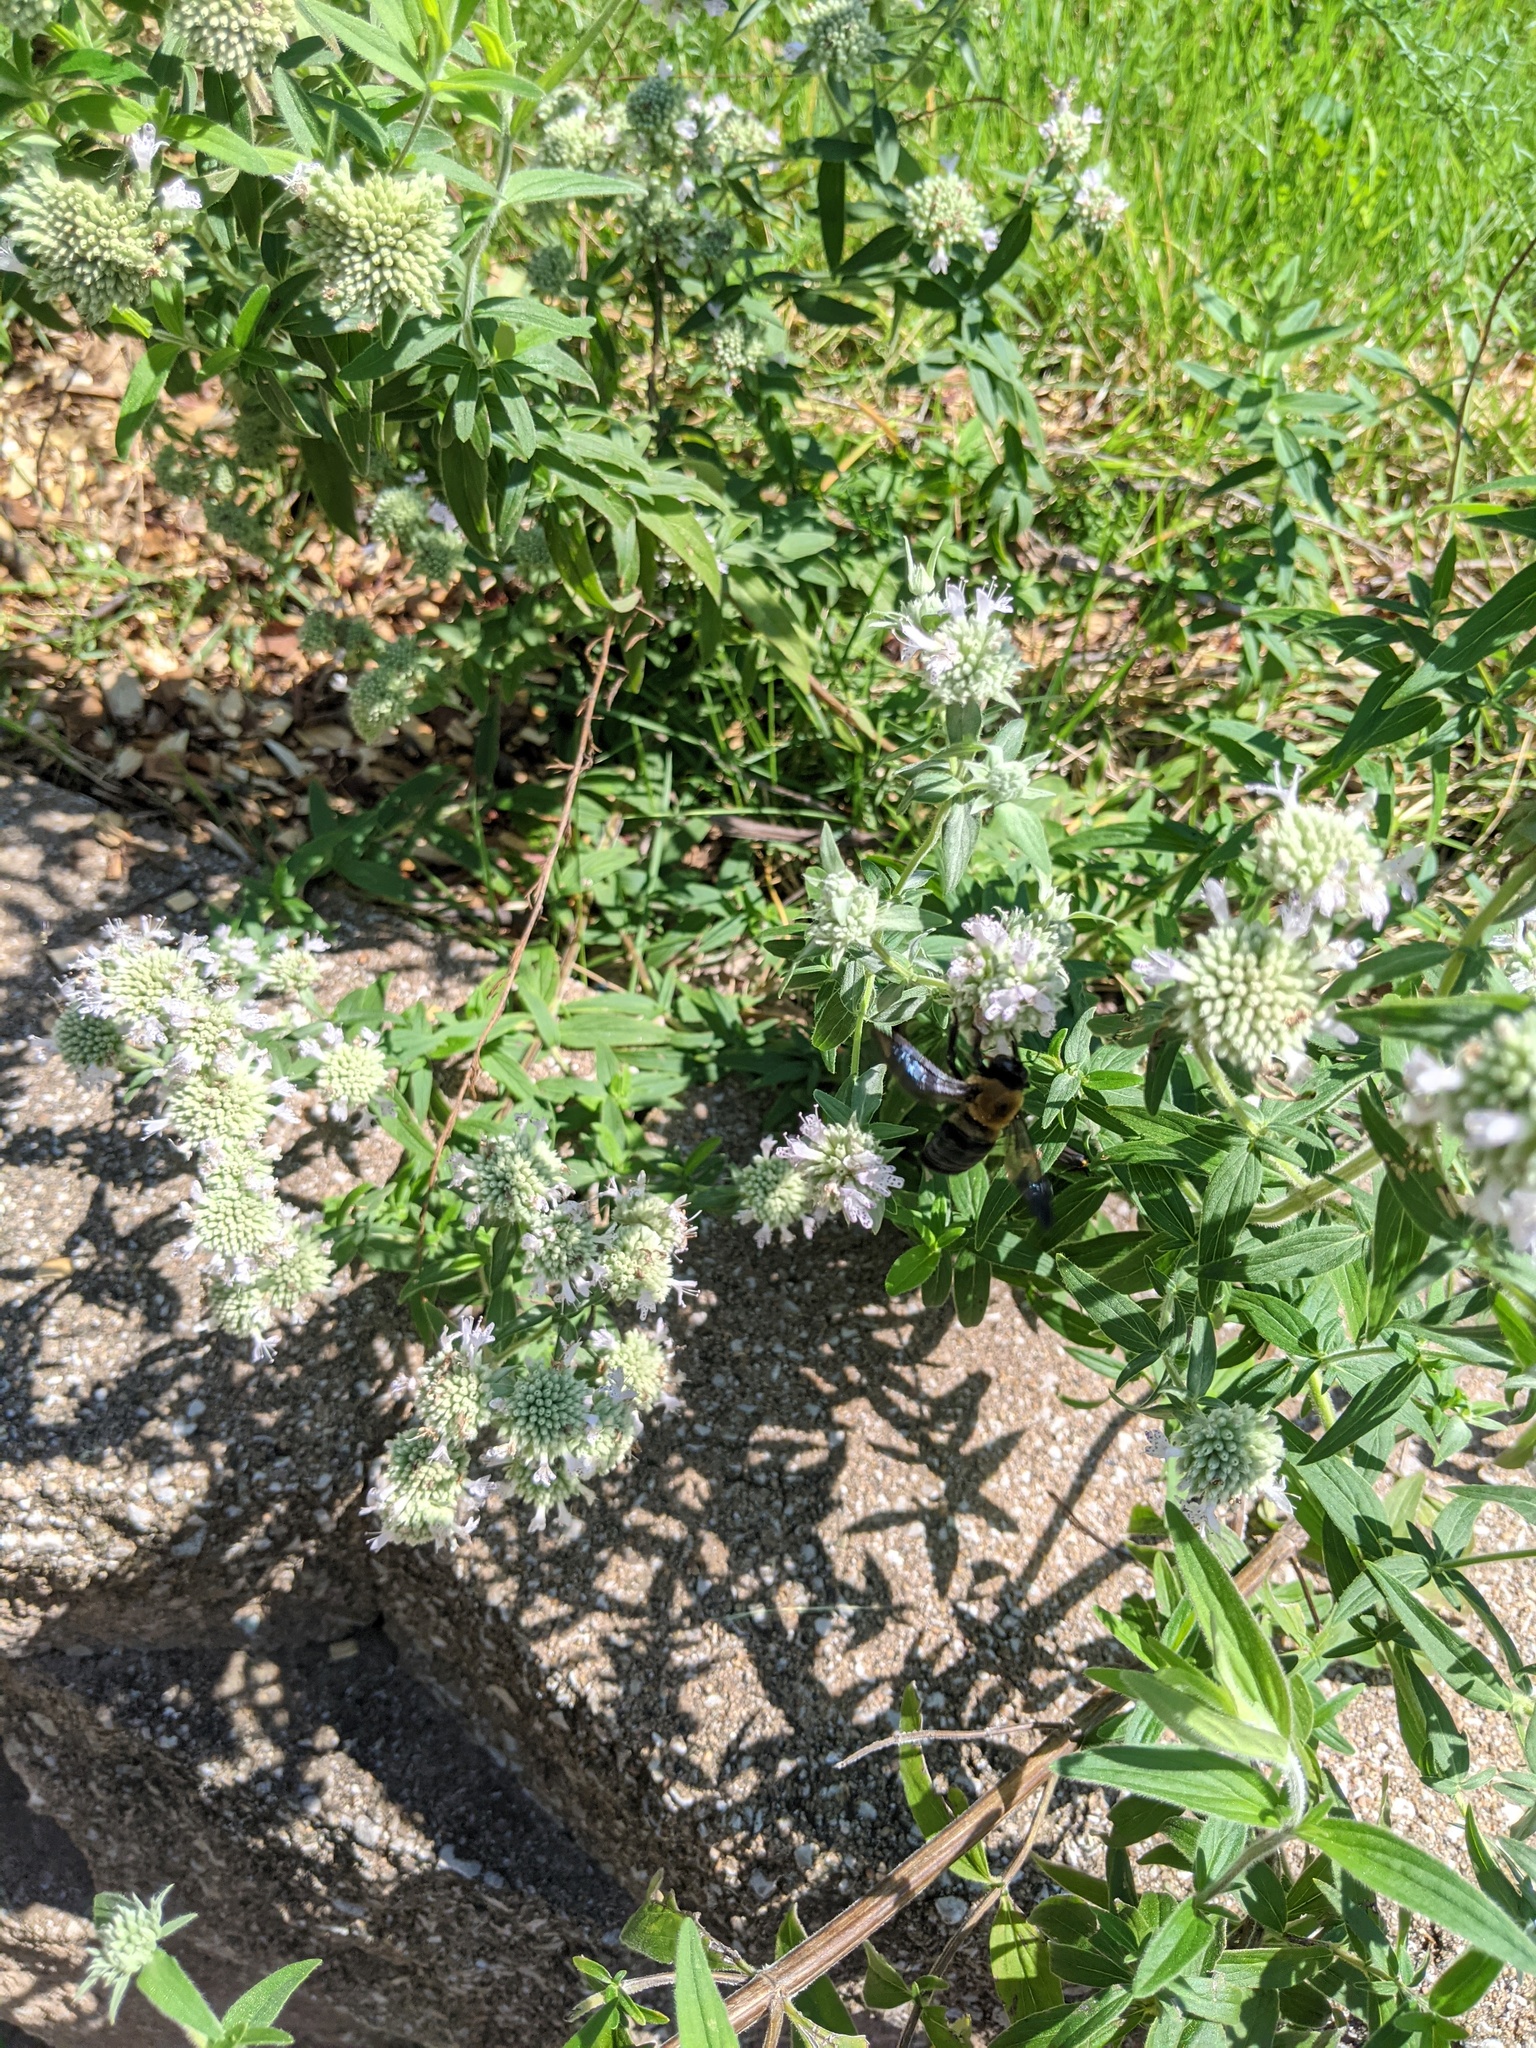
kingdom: Animalia
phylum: Arthropoda
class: Insecta
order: Hymenoptera
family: Apidae
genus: Xylocopa
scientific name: Xylocopa virginica
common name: Carpenter bee
